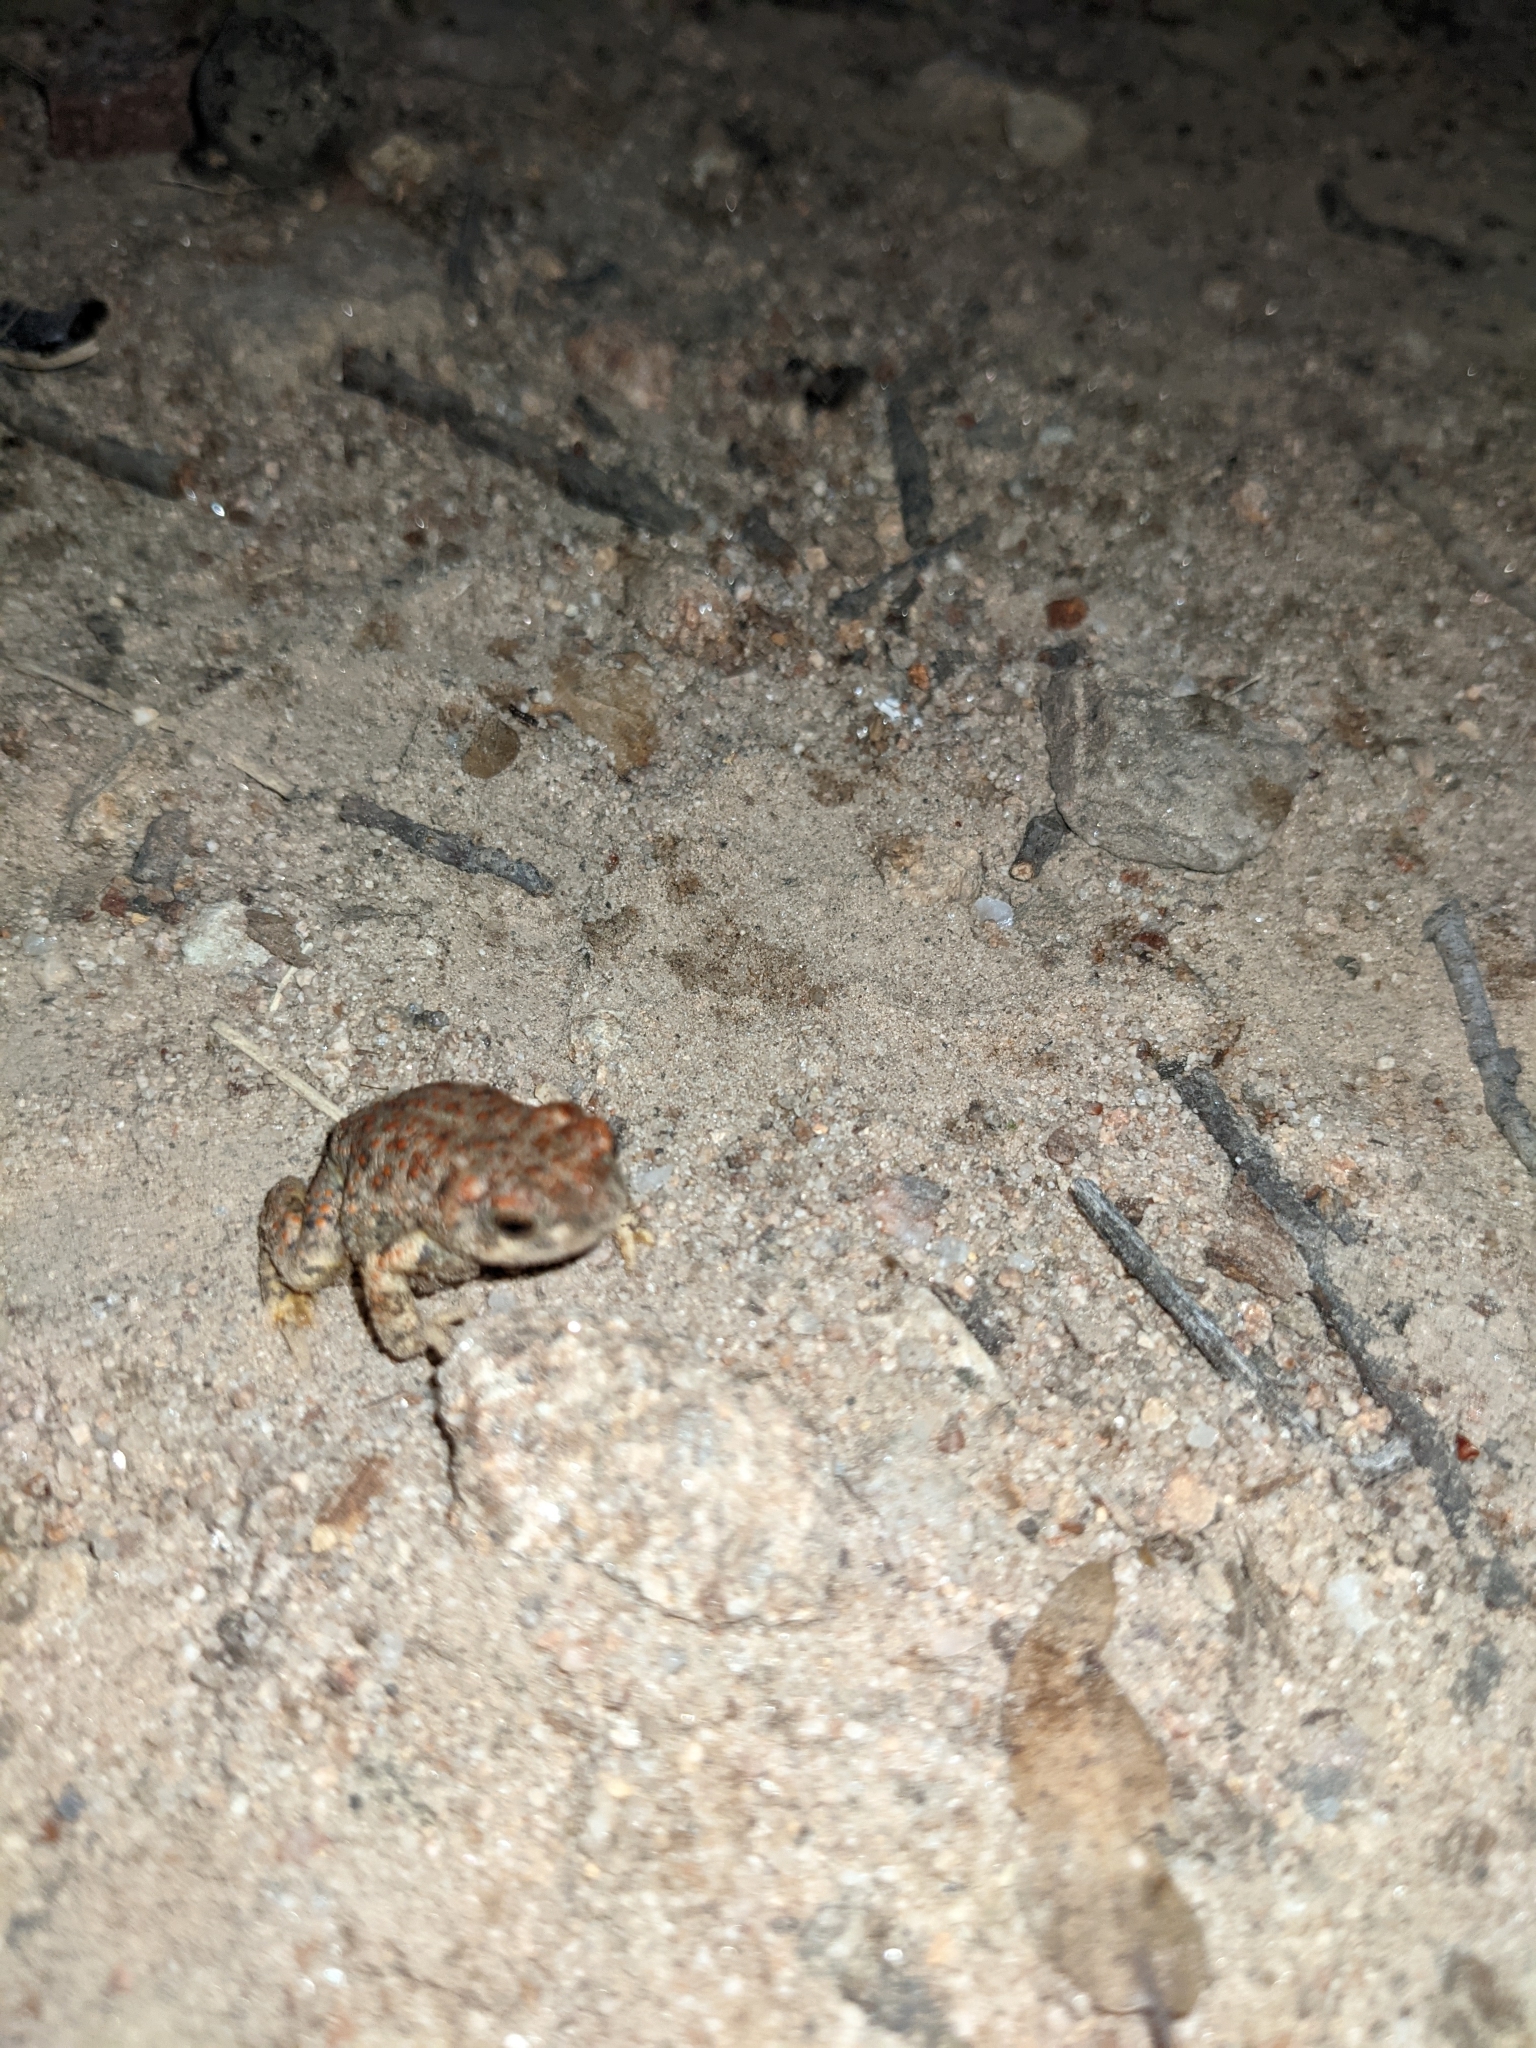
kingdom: Animalia
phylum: Chordata
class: Amphibia
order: Anura
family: Bufonidae
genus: Anaxyrus
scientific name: Anaxyrus punctatus
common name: Red-spotted toad
